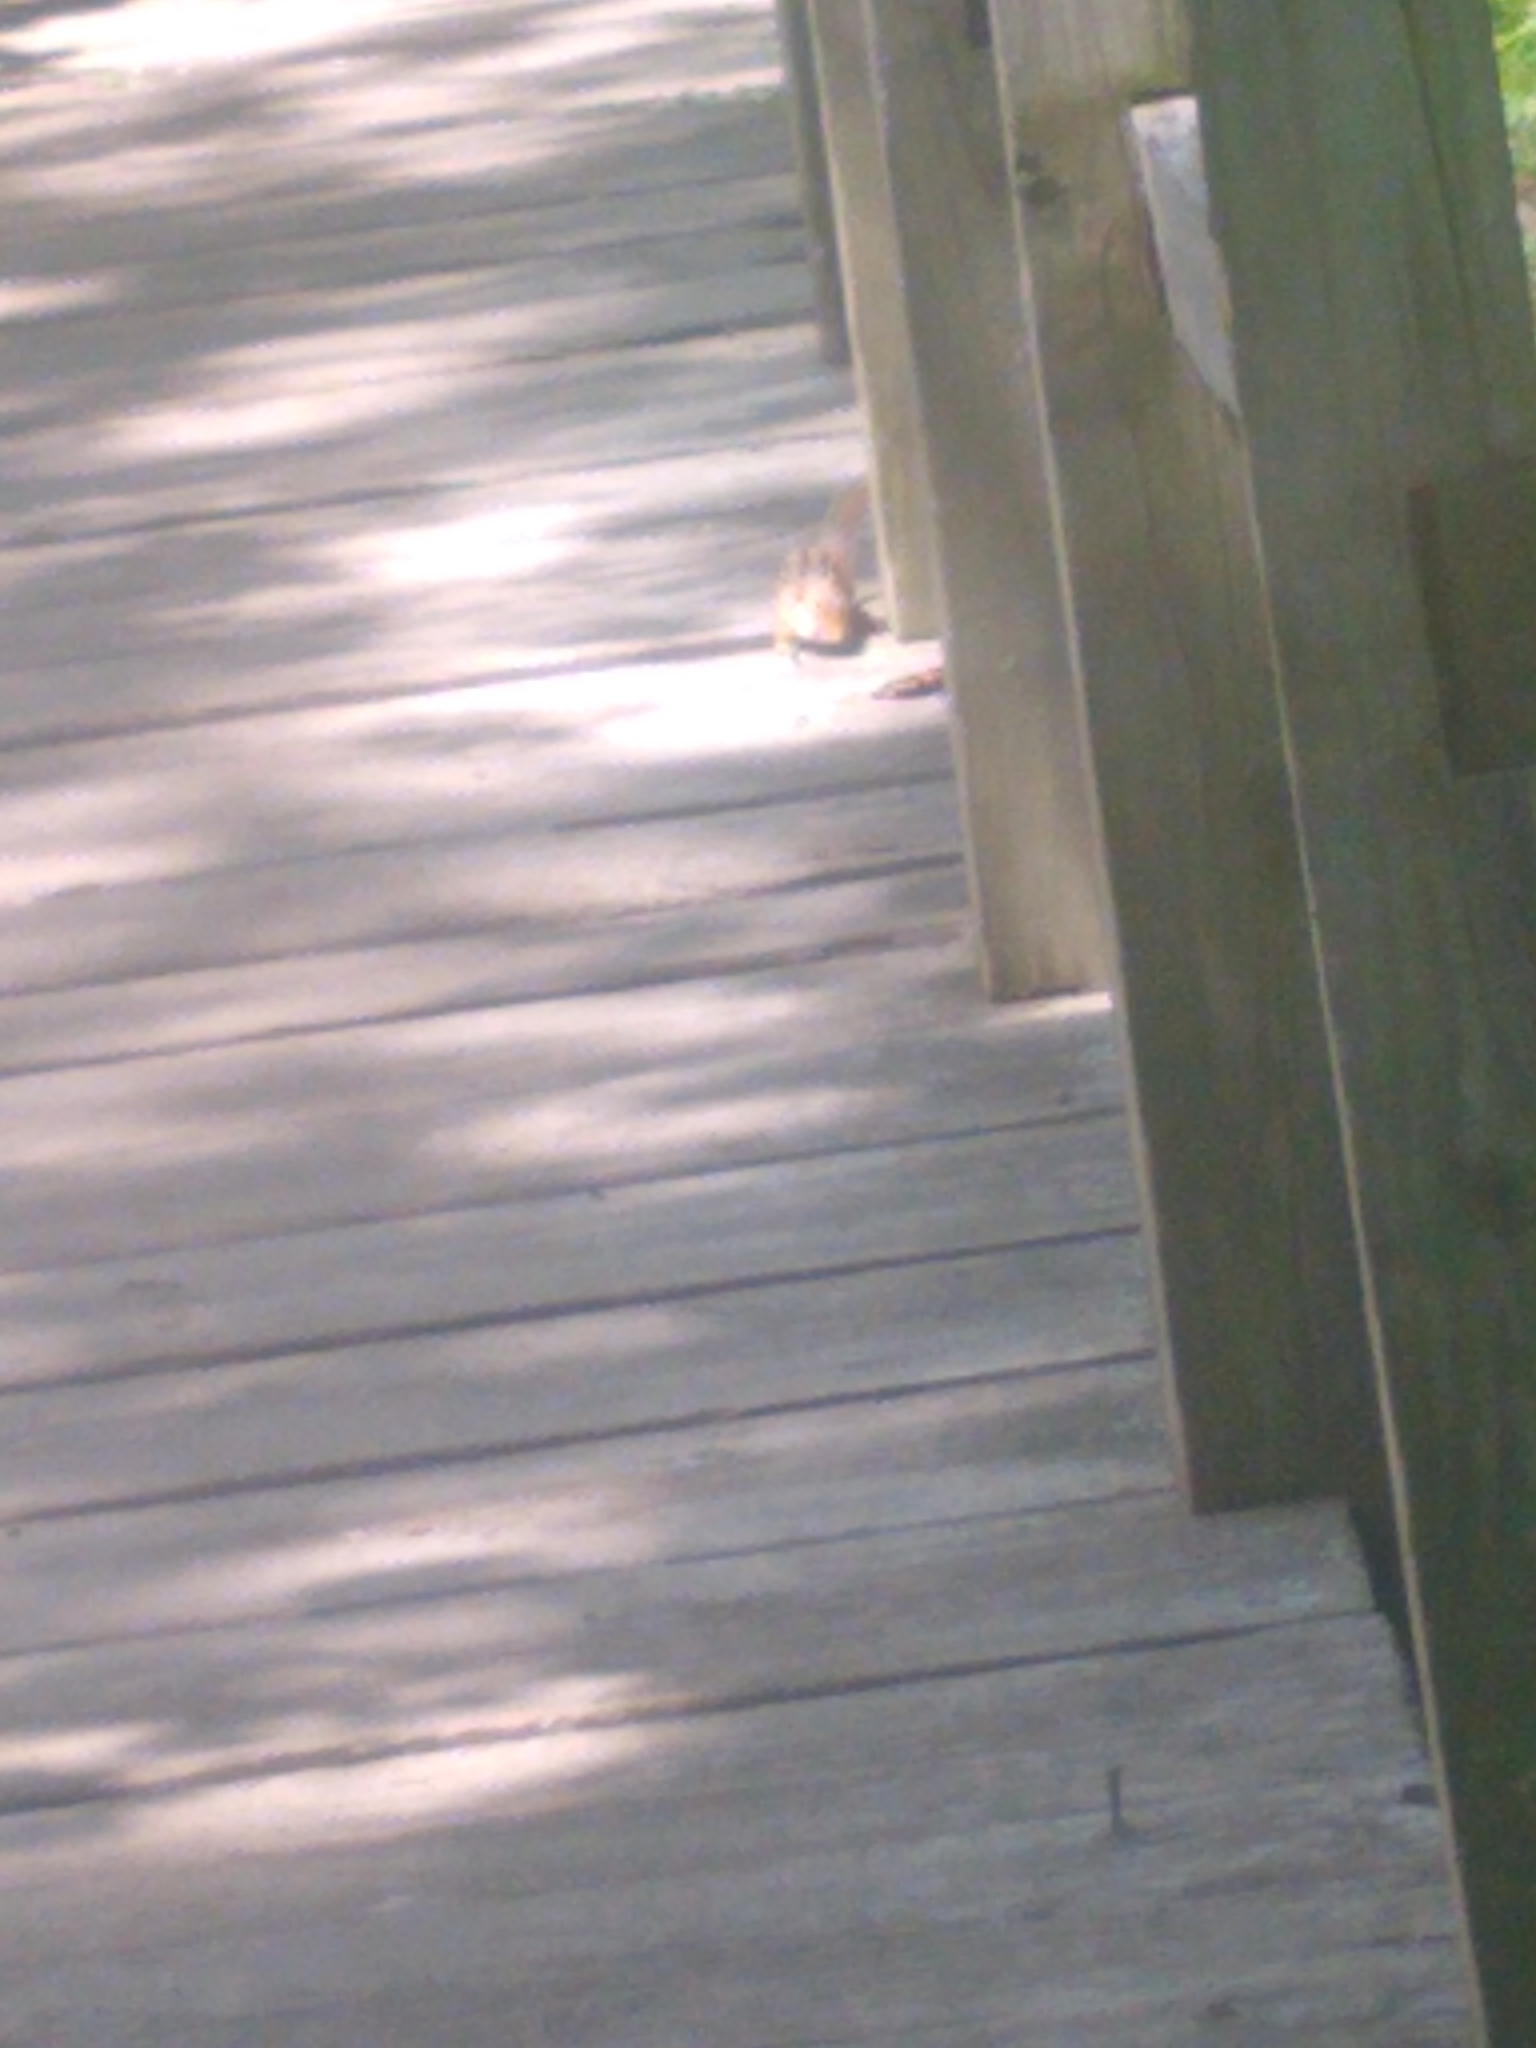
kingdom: Animalia
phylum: Chordata
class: Mammalia
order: Rodentia
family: Sciuridae
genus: Tamias
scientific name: Tamias striatus
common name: Eastern chipmunk
